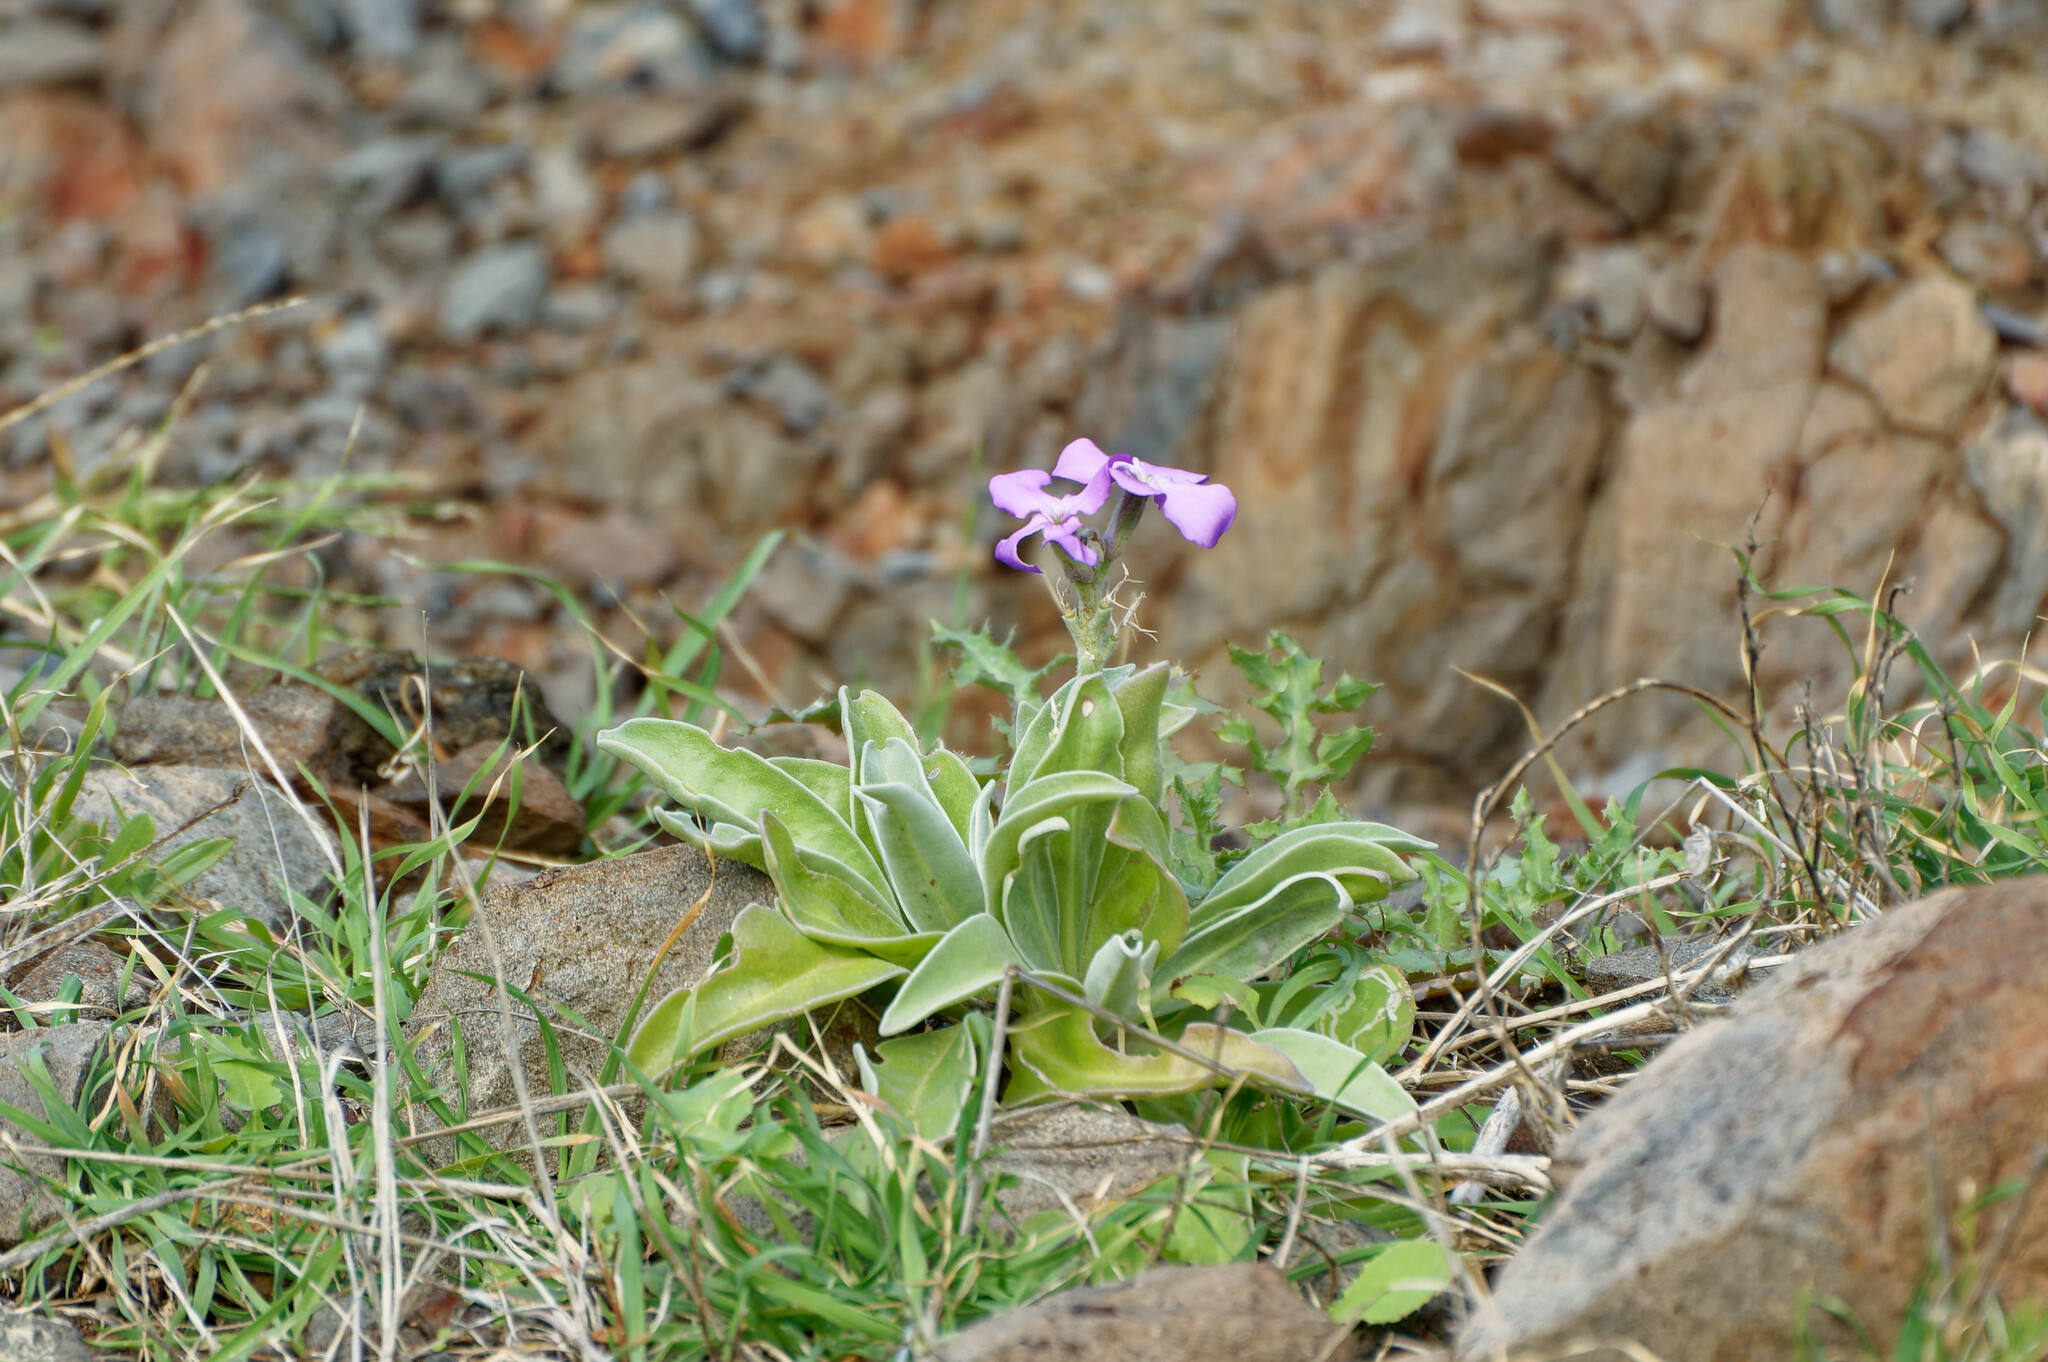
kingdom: Plantae
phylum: Tracheophyta
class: Magnoliopsida
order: Brassicales
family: Brassicaceae
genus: Matthiola
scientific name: Matthiola maderensis
